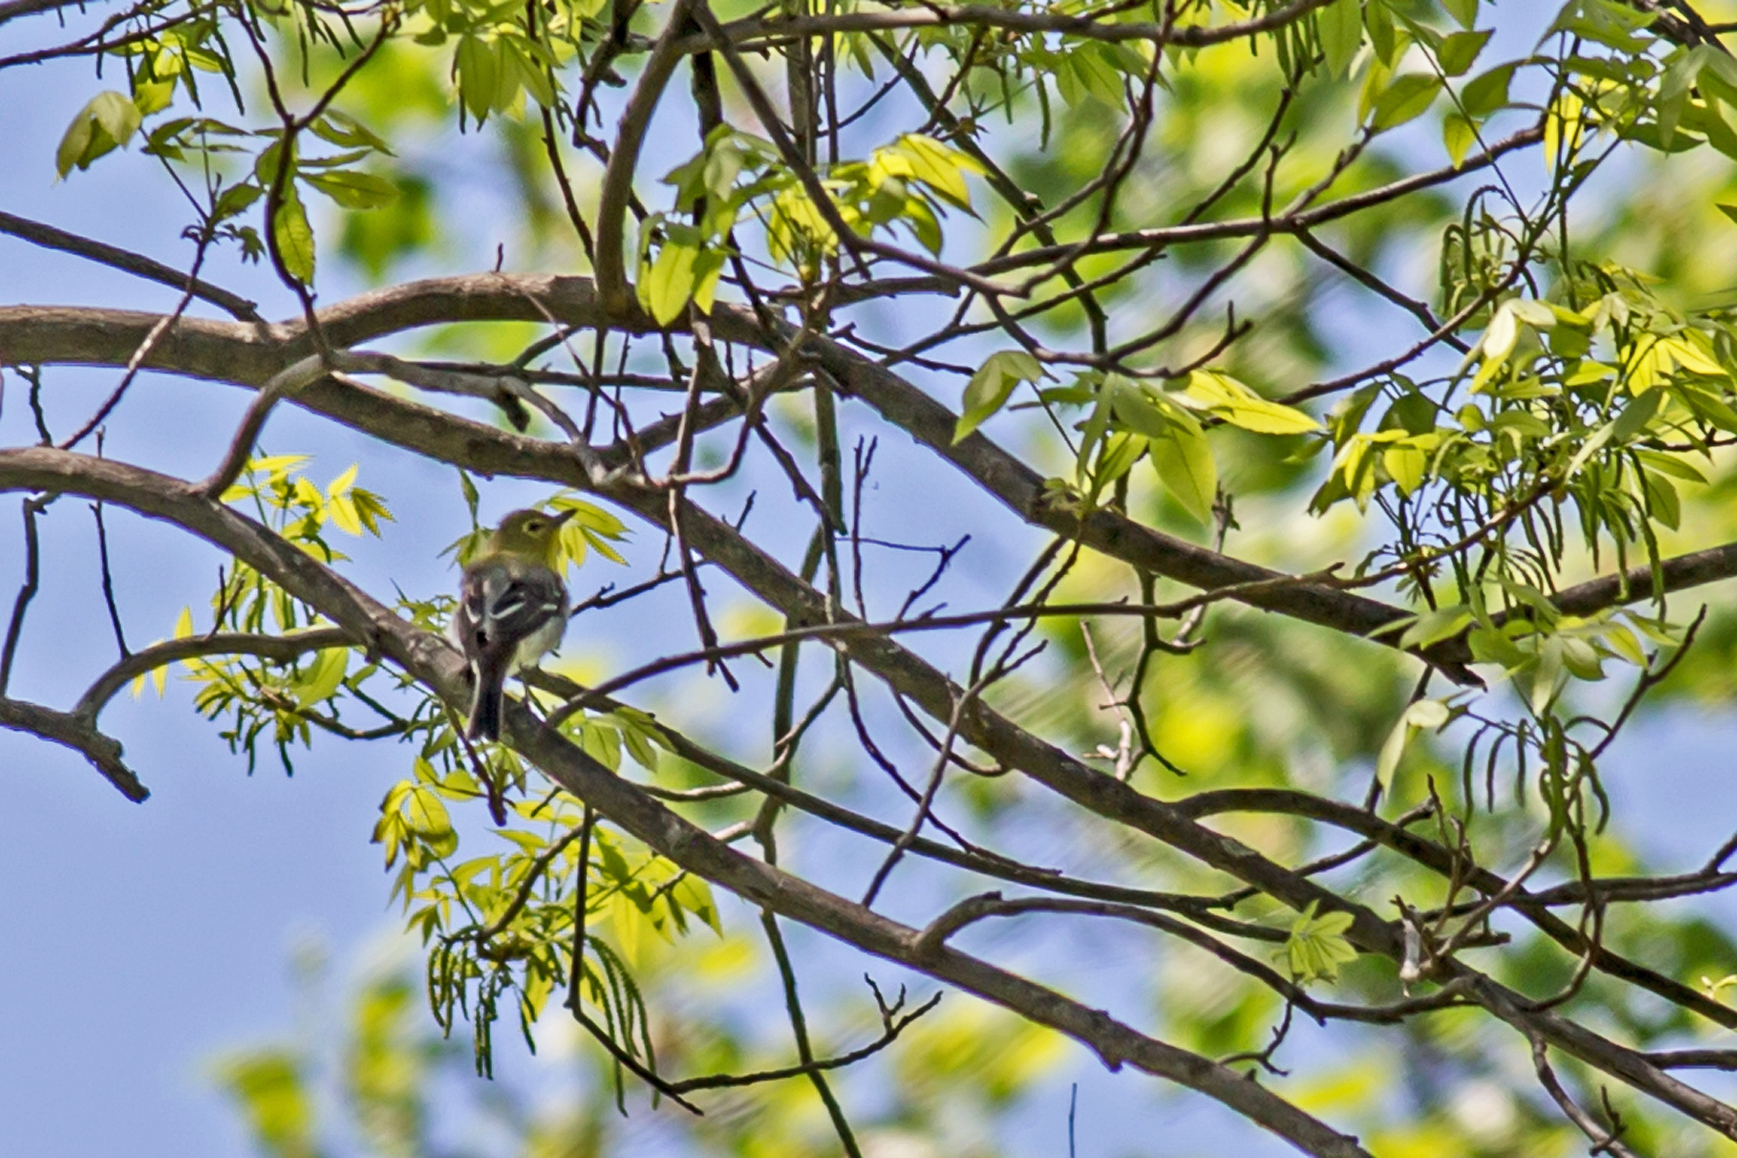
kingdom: Animalia
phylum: Chordata
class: Aves
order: Passeriformes
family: Vireonidae
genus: Vireo
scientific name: Vireo flavifrons
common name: Yellow-throated vireo
